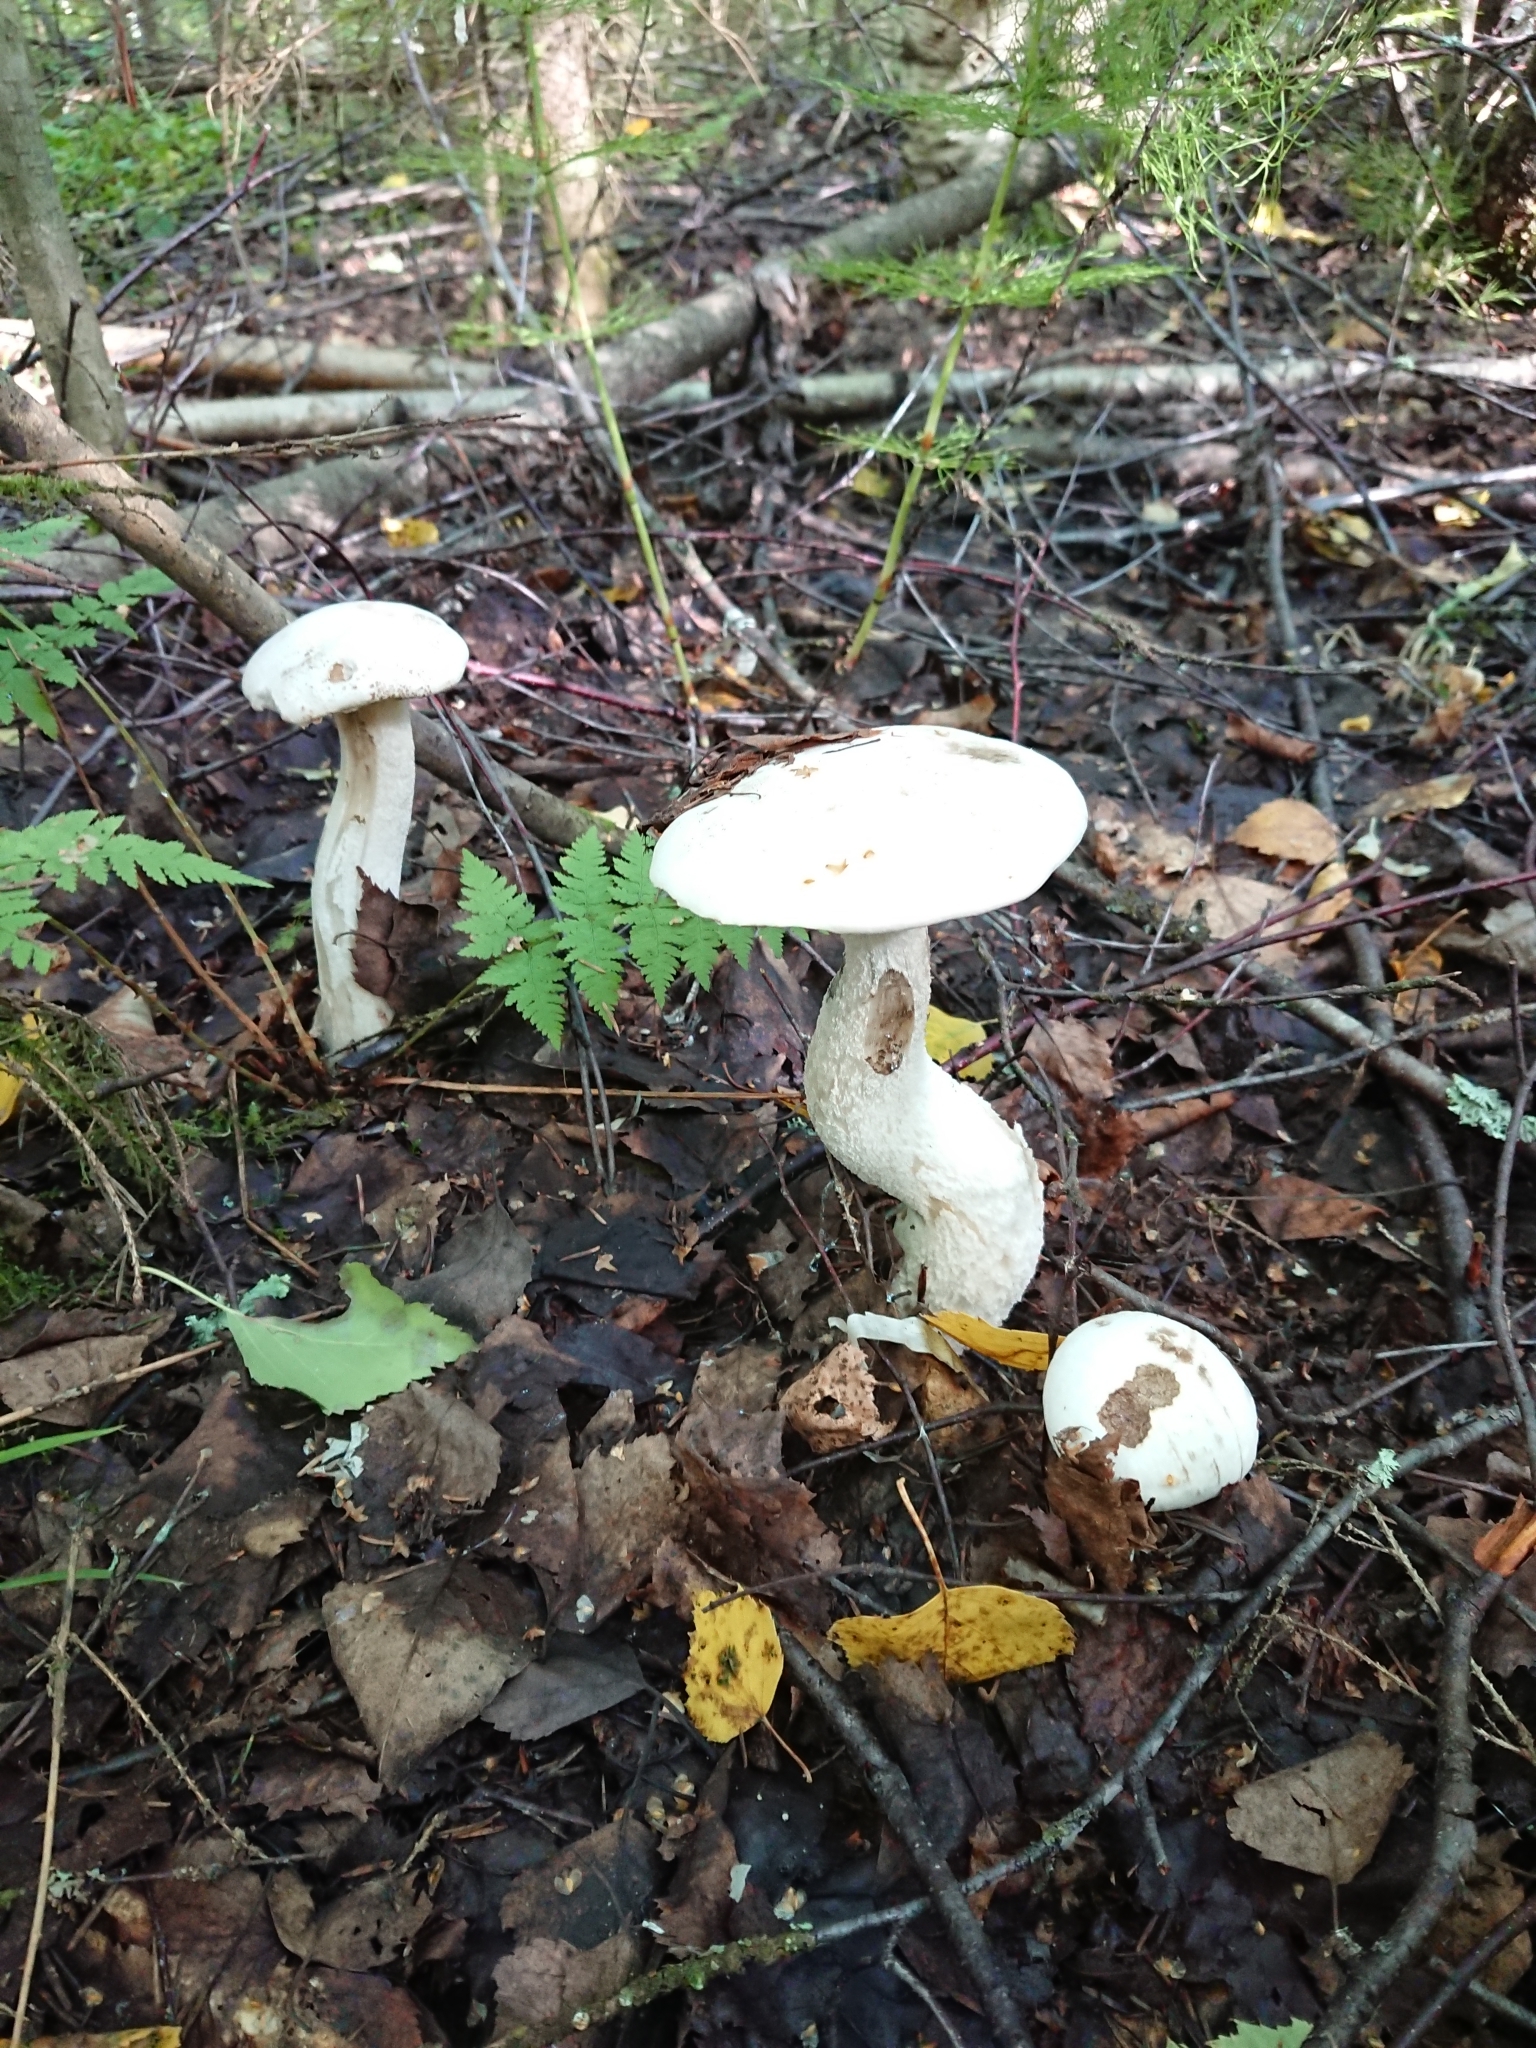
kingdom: Fungi
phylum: Basidiomycota
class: Agaricomycetes
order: Boletales
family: Boletaceae
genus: Leccinum
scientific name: Leccinum versipelle
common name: Orange birch bolete
